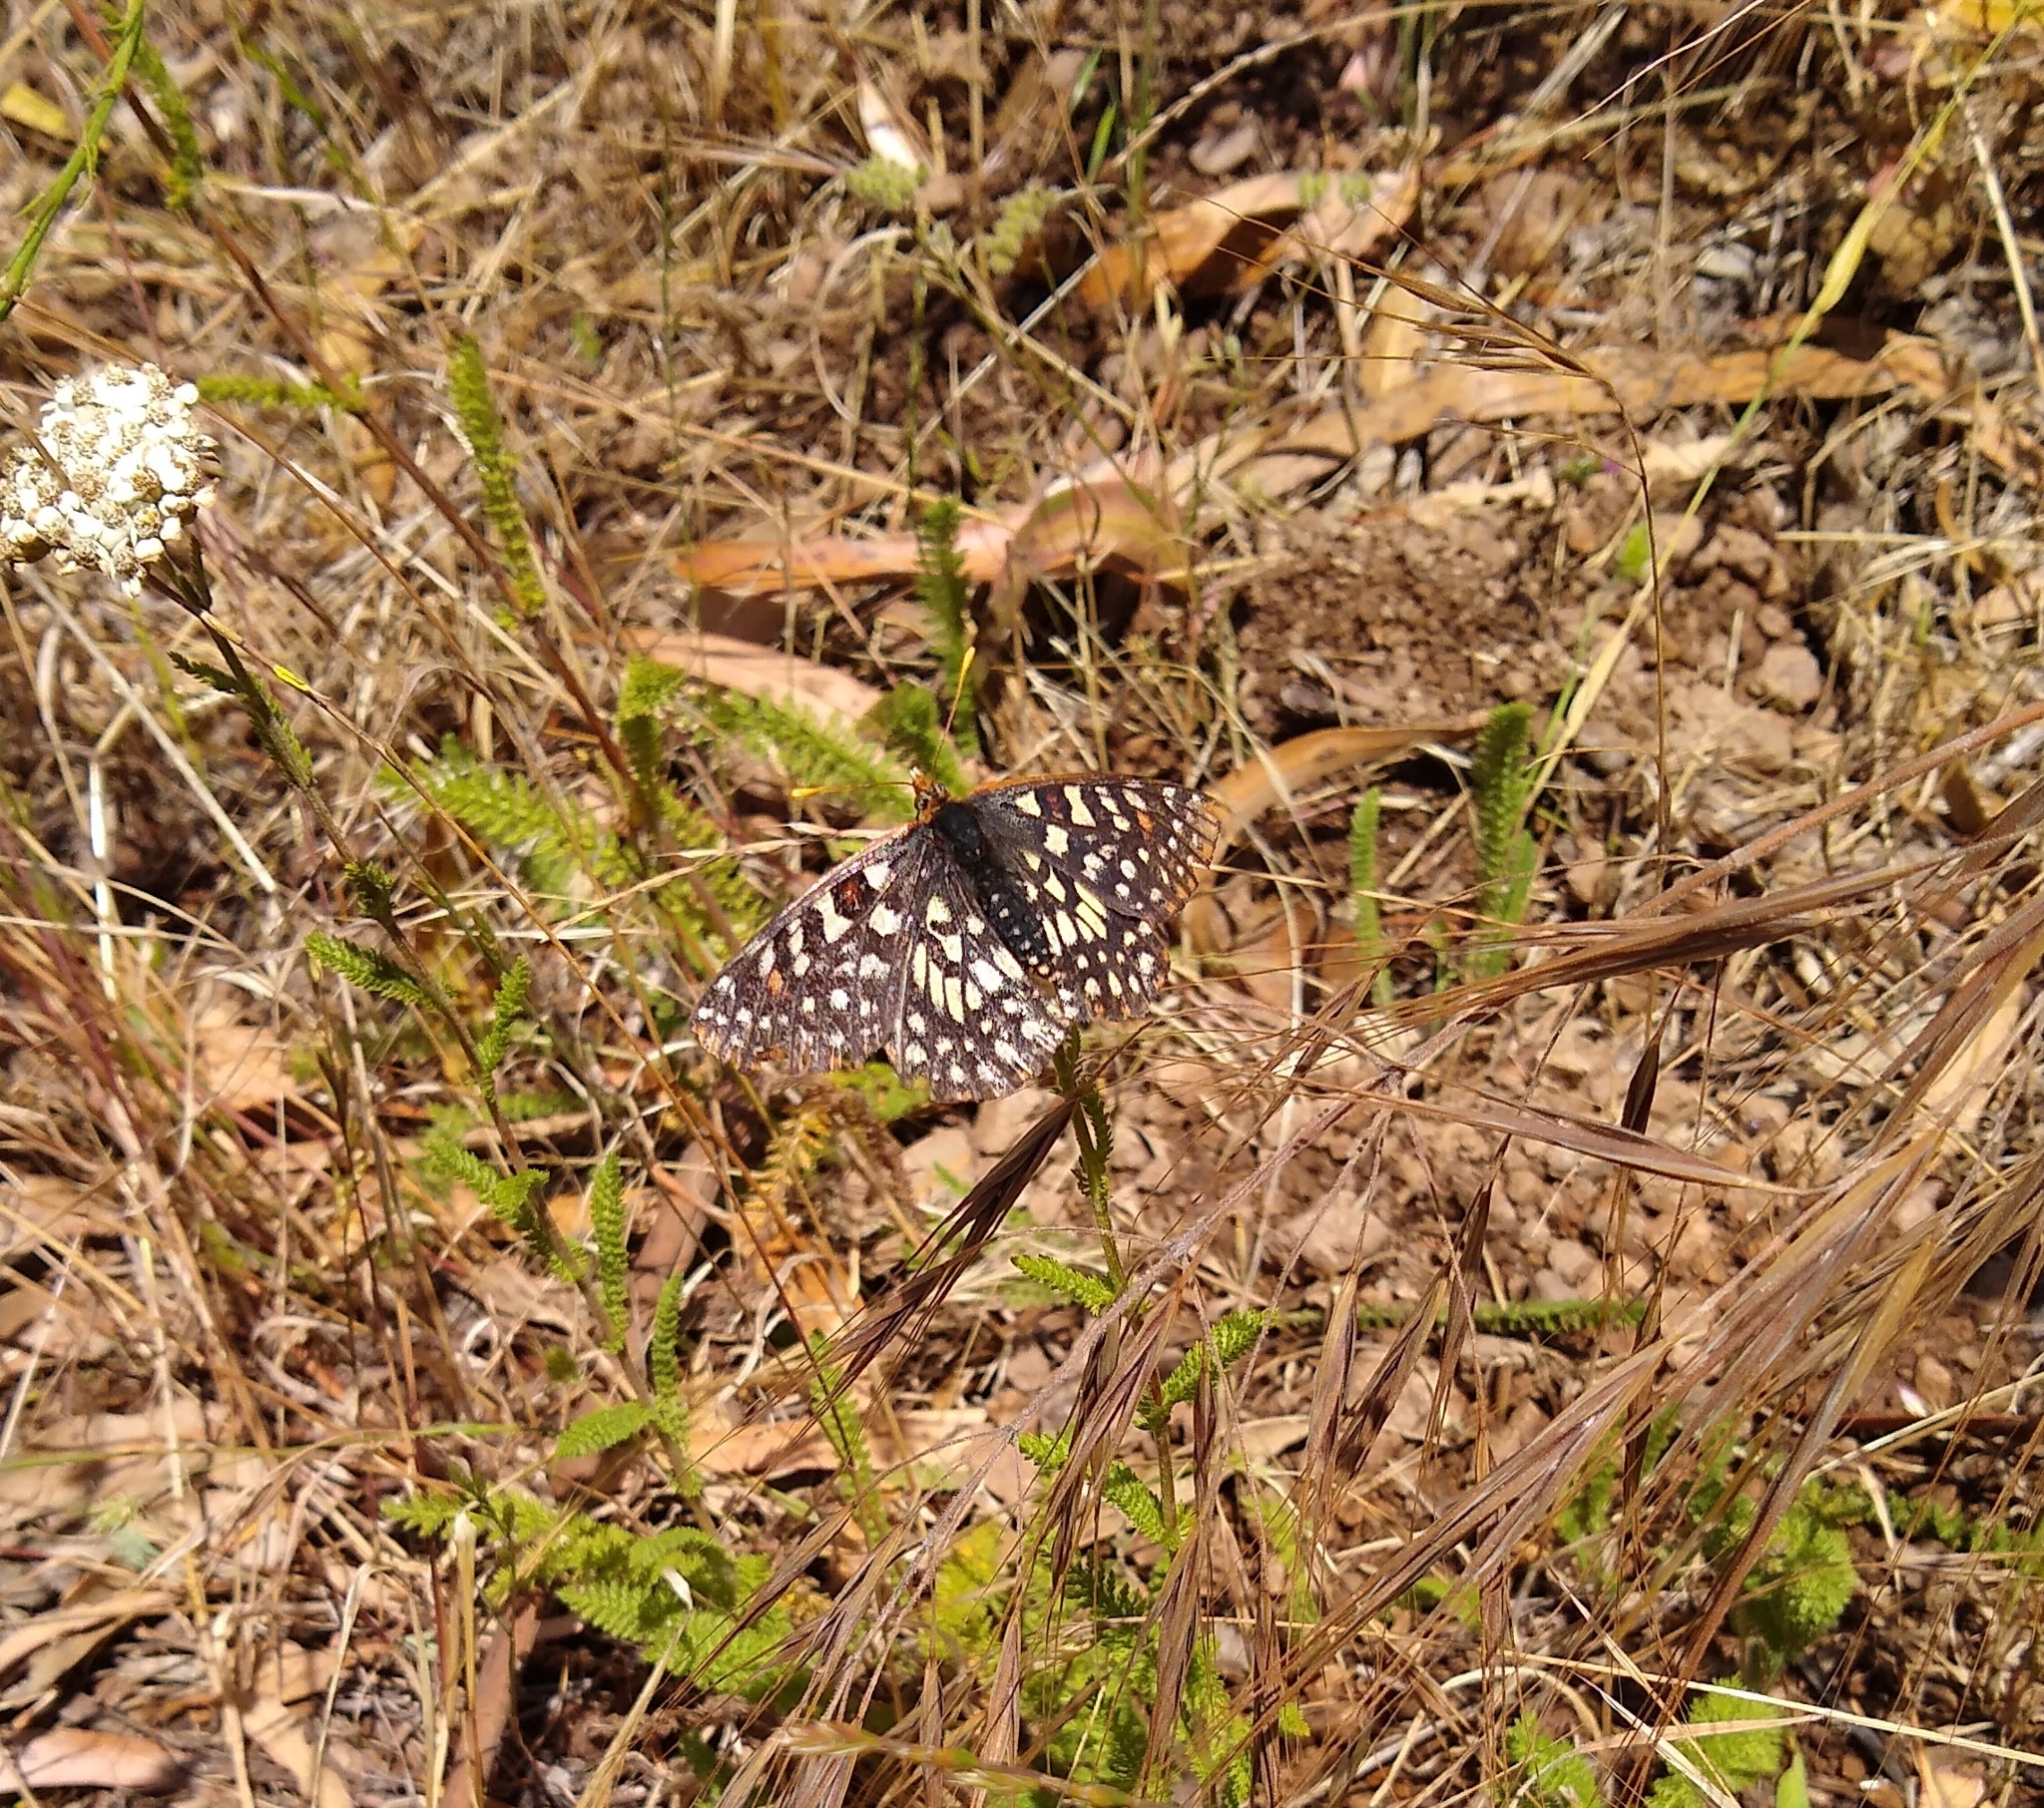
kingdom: Animalia
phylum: Arthropoda
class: Insecta
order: Lepidoptera
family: Nymphalidae
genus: Occidryas
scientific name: Occidryas chalcedona
